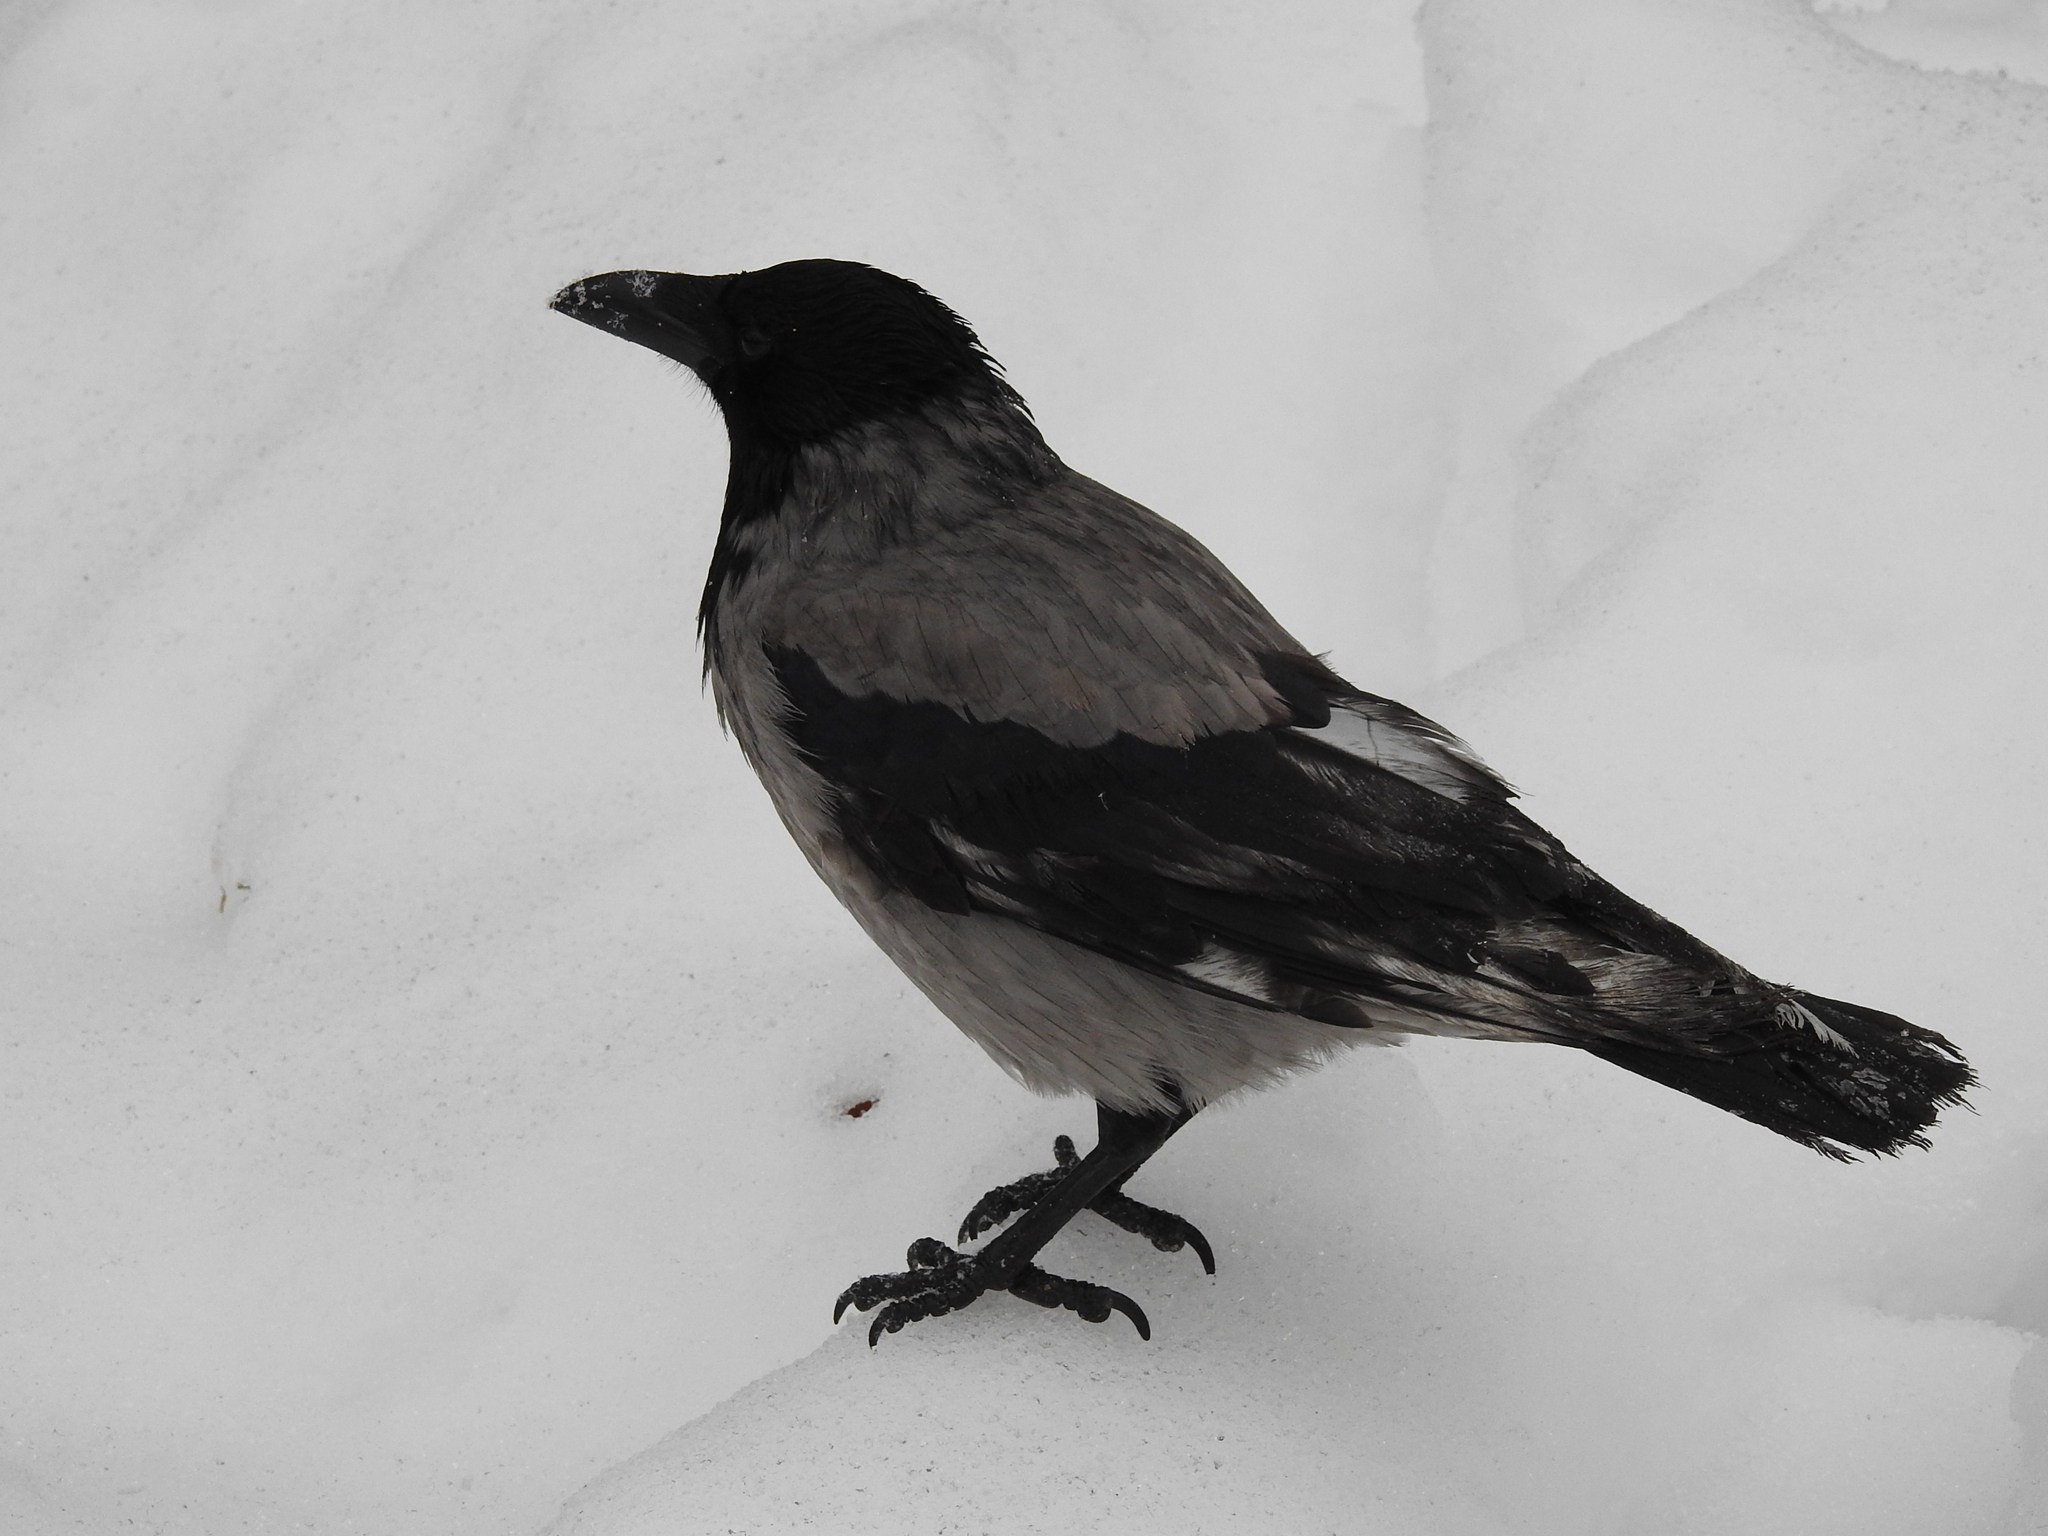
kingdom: Animalia
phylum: Chordata
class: Aves
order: Passeriformes
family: Corvidae
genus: Corvus
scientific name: Corvus cornix
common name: Hooded crow
